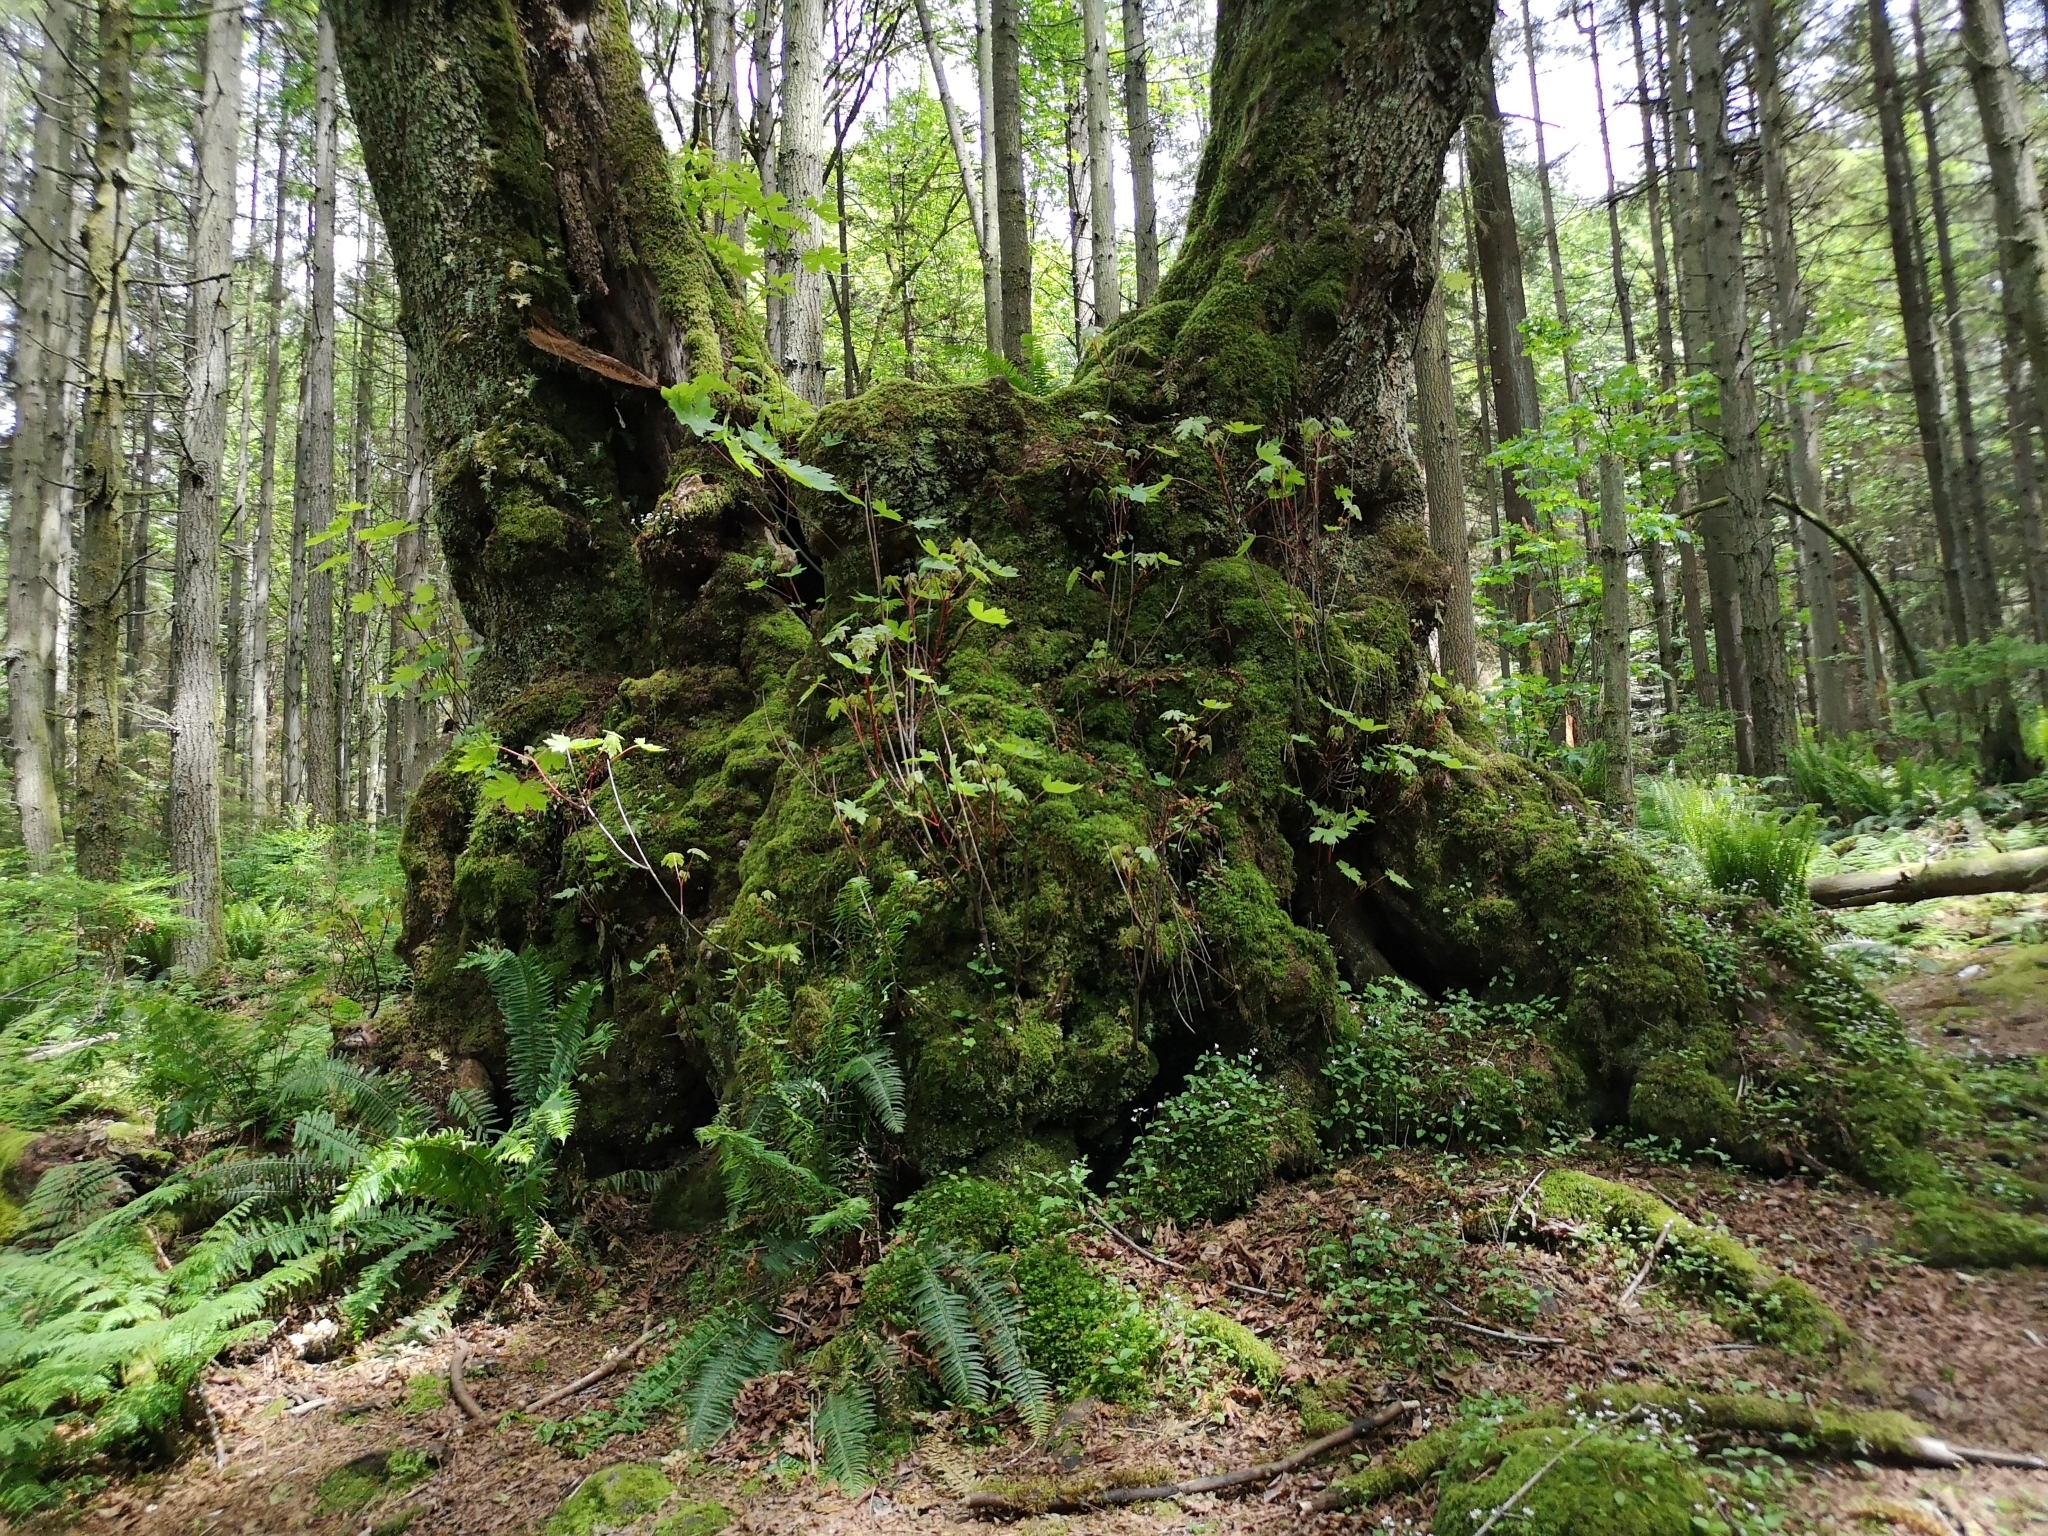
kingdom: Plantae
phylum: Tracheophyta
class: Magnoliopsida
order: Sapindales
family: Sapindaceae
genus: Acer
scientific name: Acer macrophyllum
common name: Oregon maple
